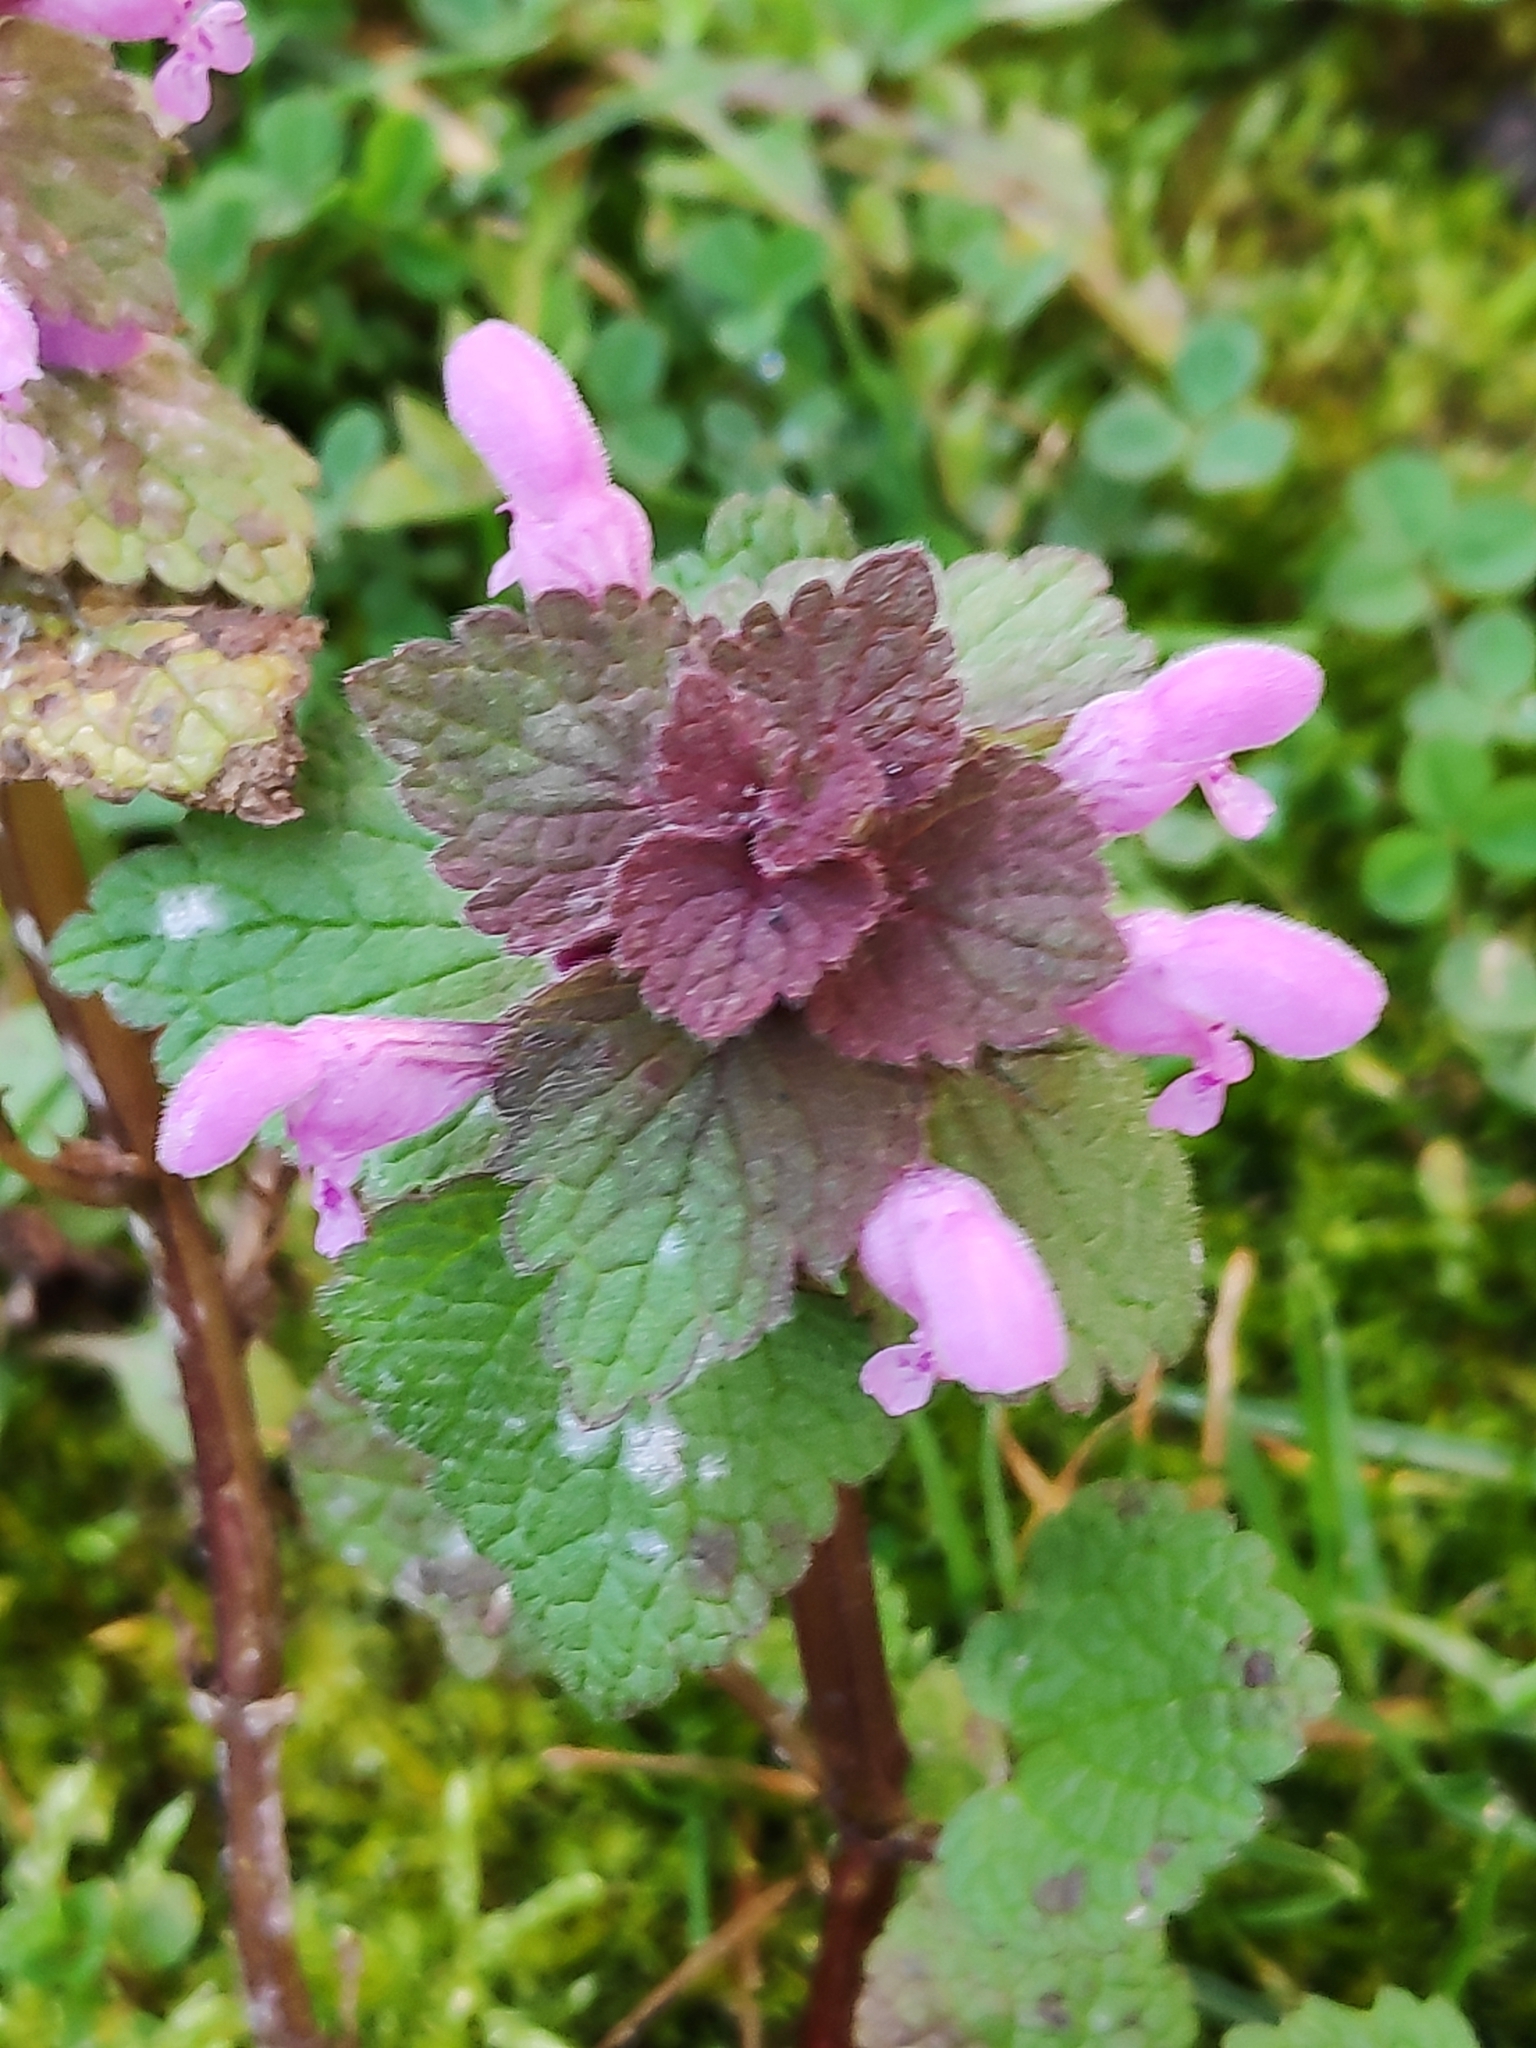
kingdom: Plantae
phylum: Tracheophyta
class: Magnoliopsida
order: Lamiales
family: Lamiaceae
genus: Lamium
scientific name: Lamium purpureum
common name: Red dead-nettle
